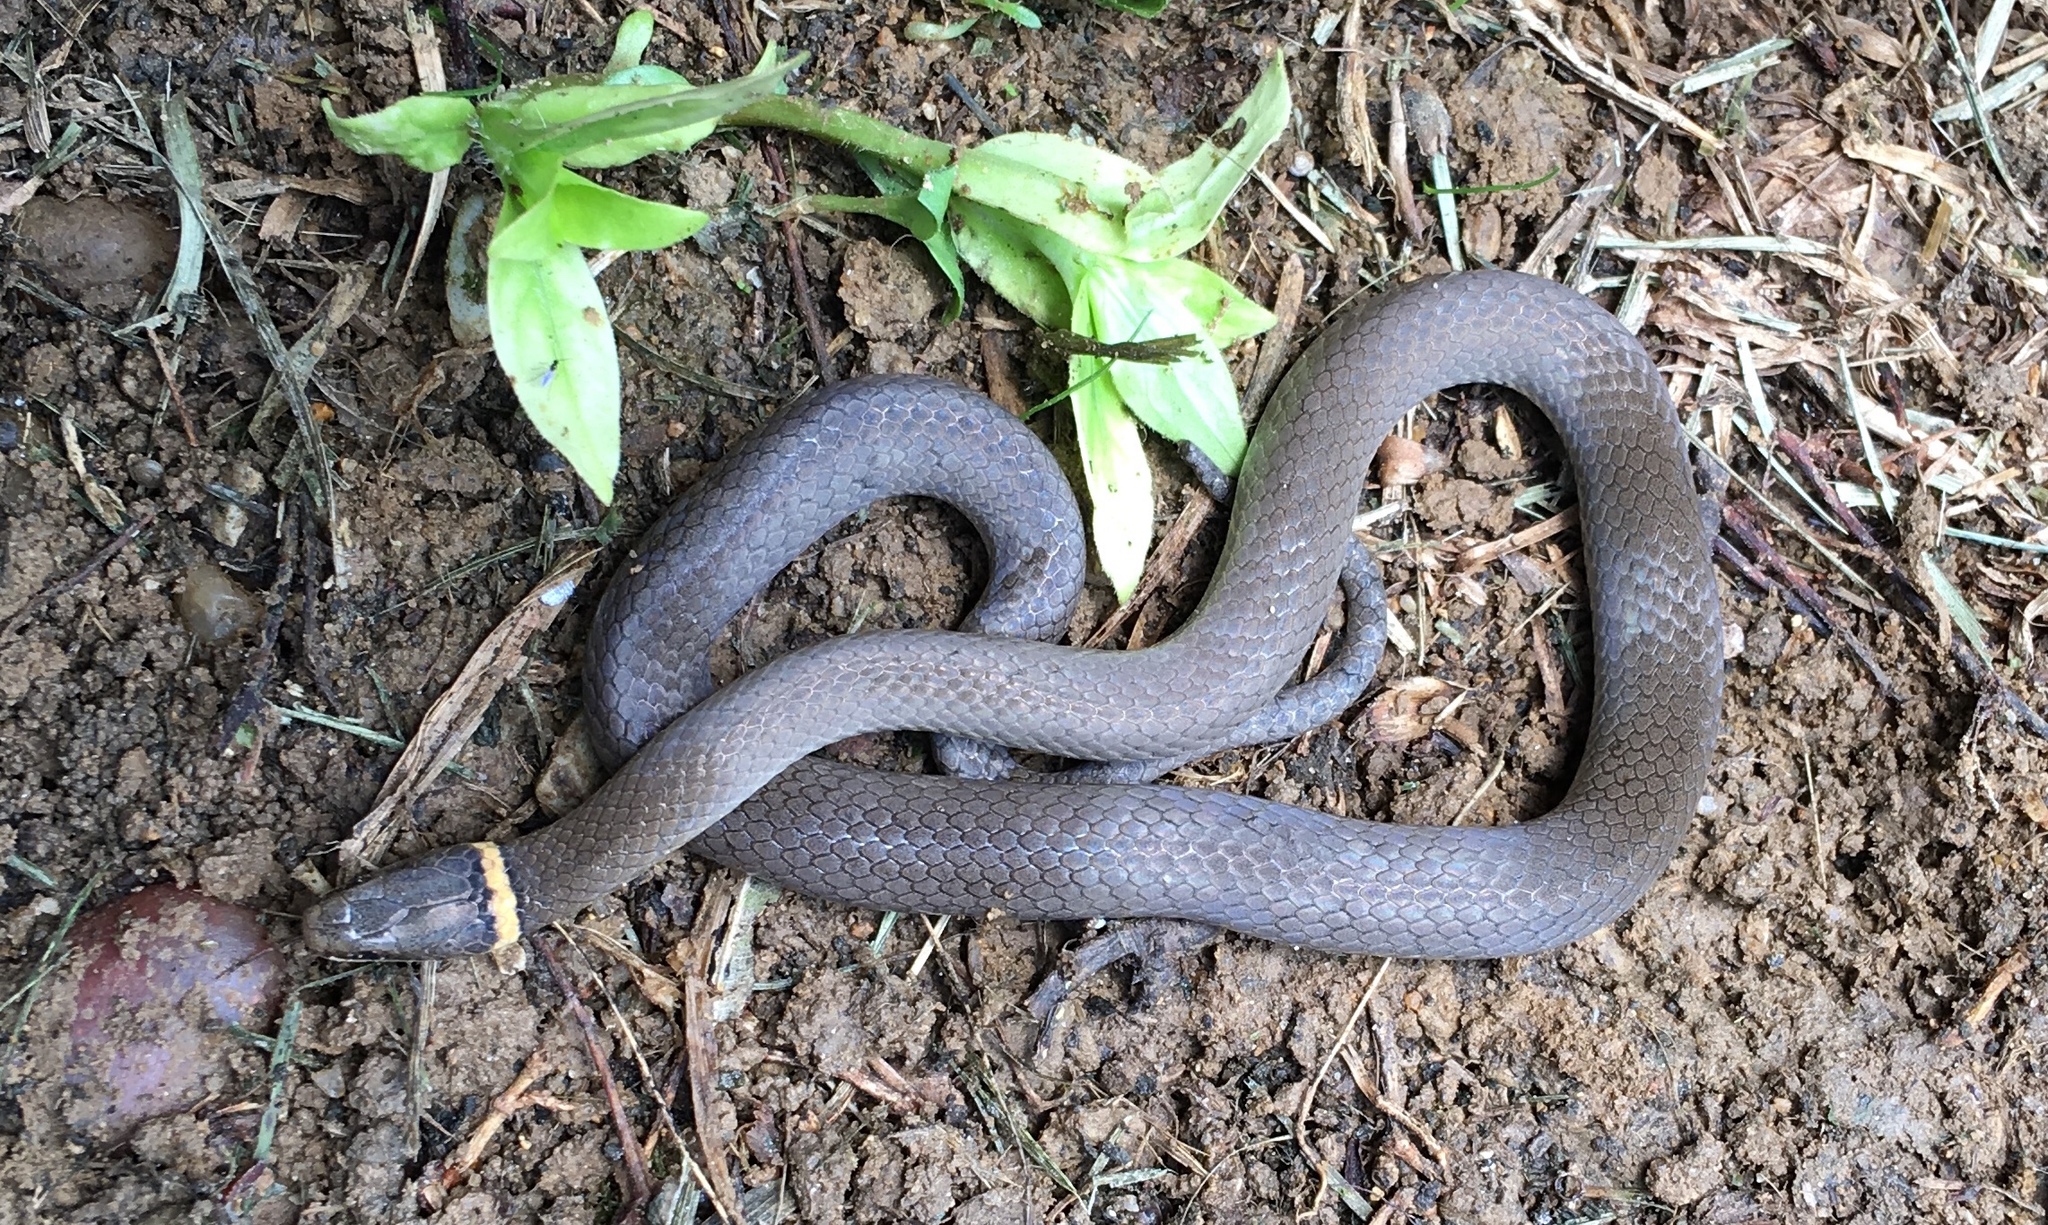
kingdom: Animalia
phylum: Chordata
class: Squamata
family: Colubridae
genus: Diadophis
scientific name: Diadophis punctatus
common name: Ringneck snake
